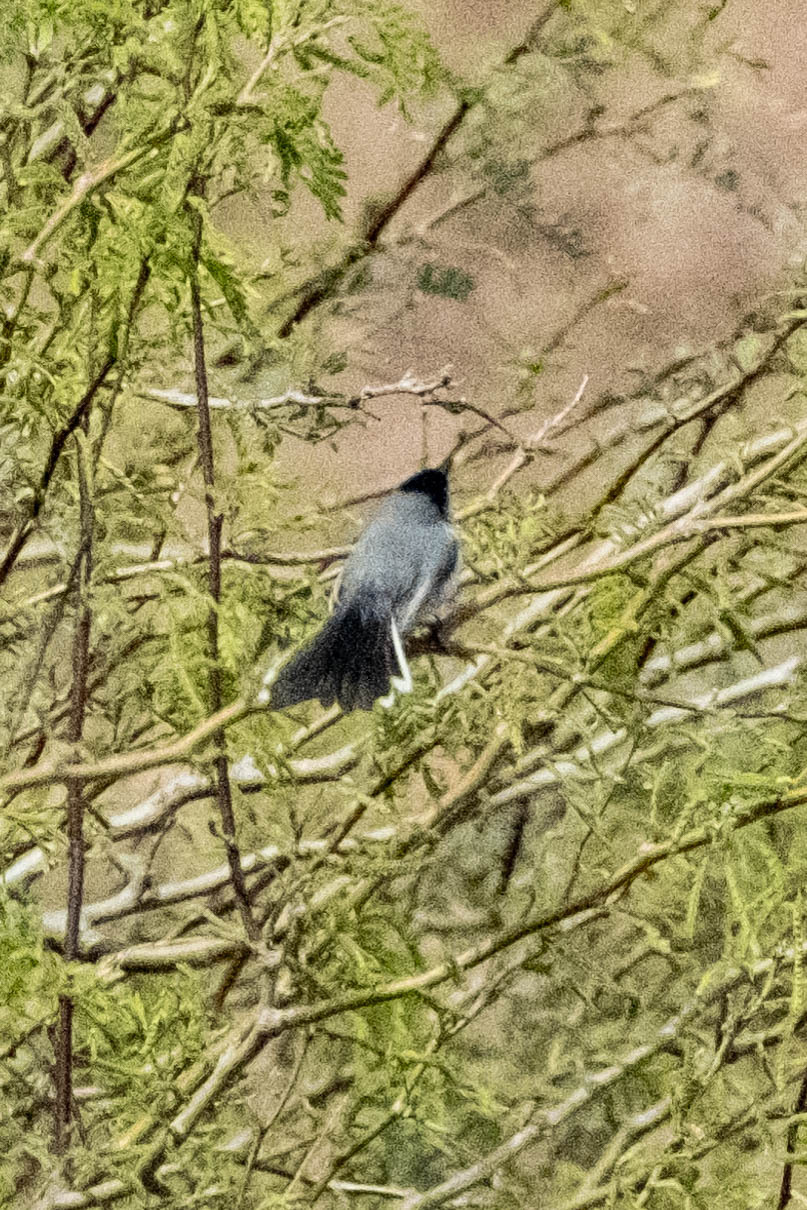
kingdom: Animalia
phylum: Chordata
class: Aves
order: Passeriformes
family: Polioptilidae
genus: Polioptila
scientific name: Polioptila melanura
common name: Black-tailed gnatcatcher
